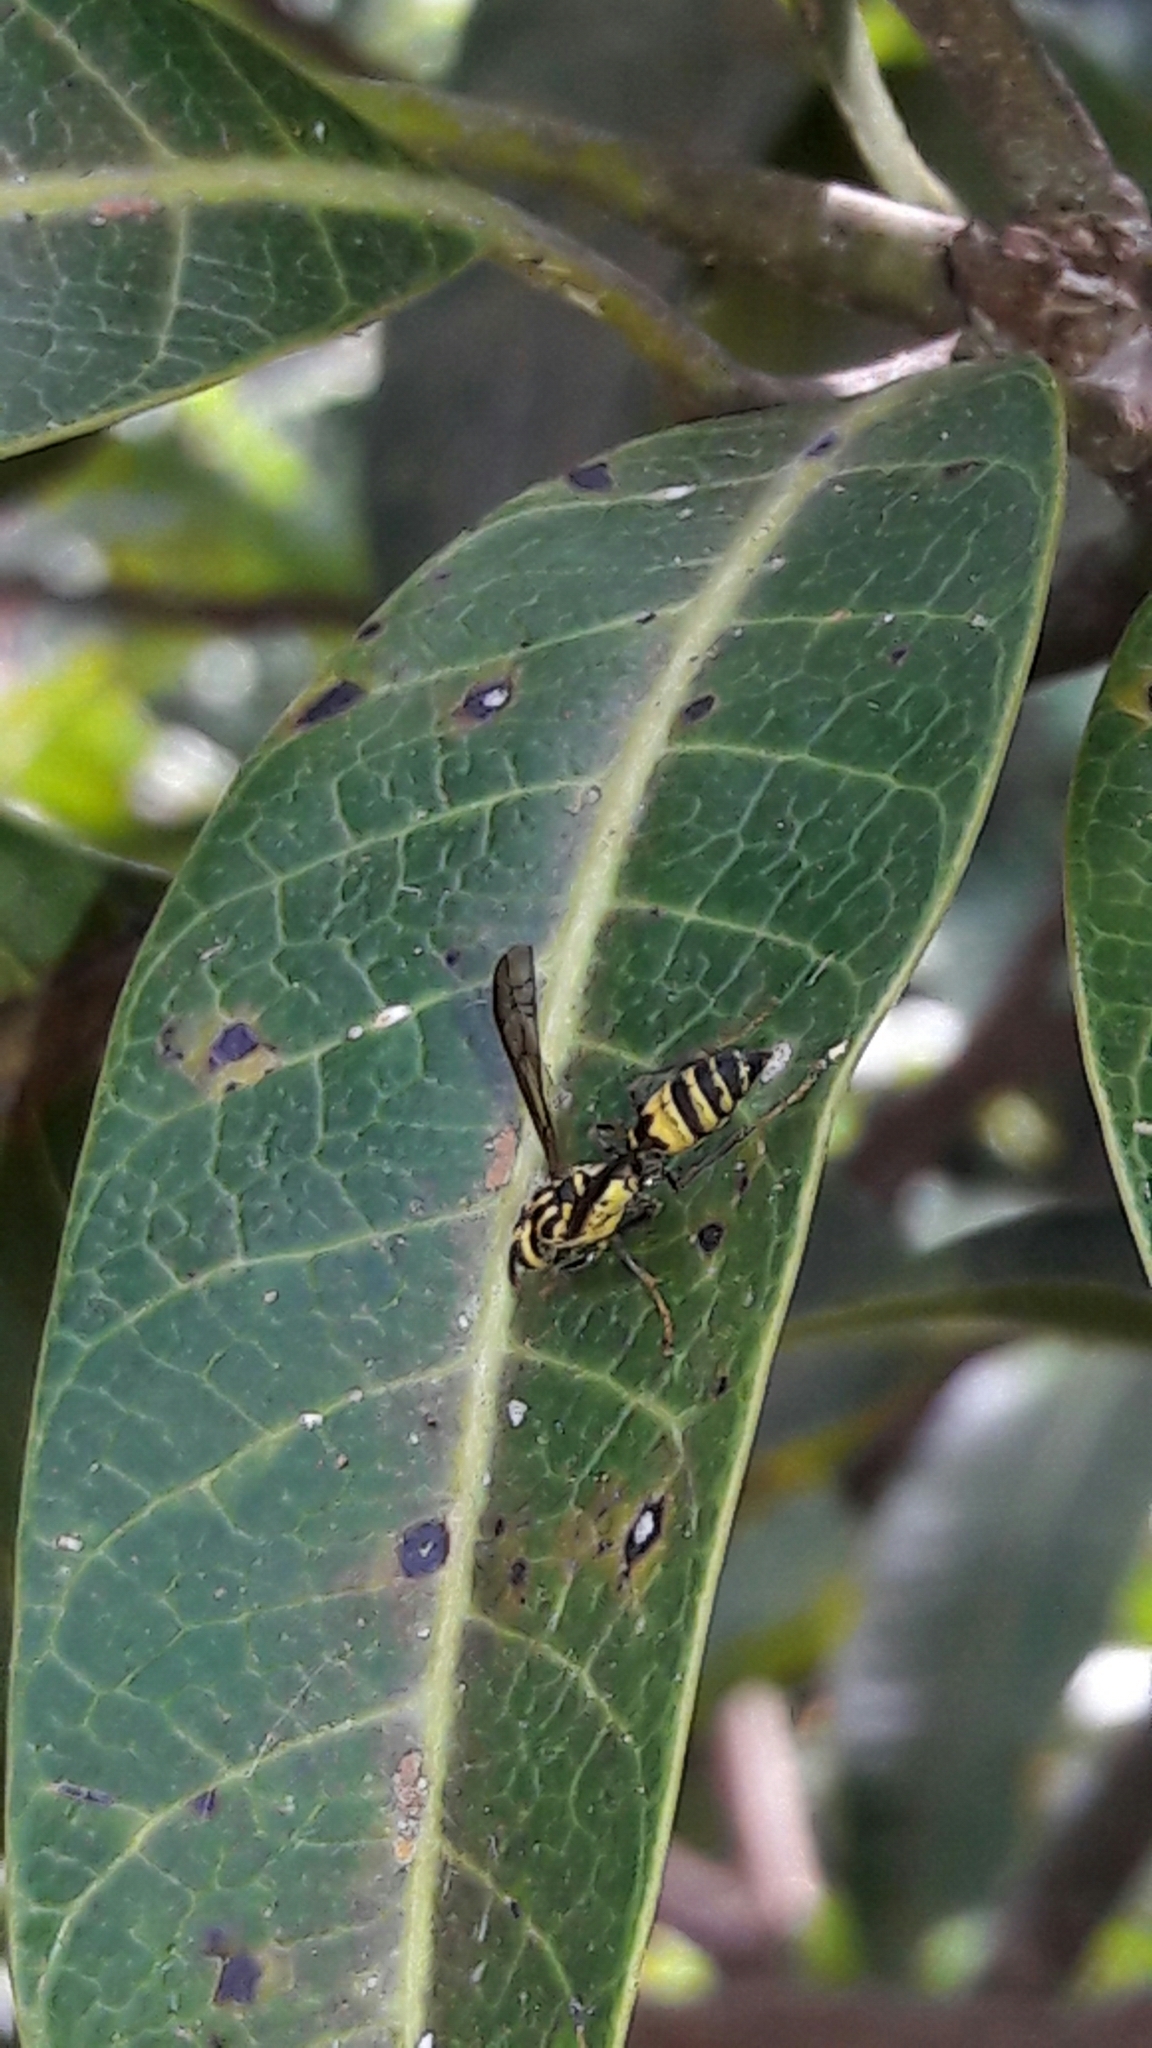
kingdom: Animalia
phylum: Arthropoda
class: Insecta
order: Hymenoptera
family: Eumenidae
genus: Polybia
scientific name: Polybia fastidiosuscula
